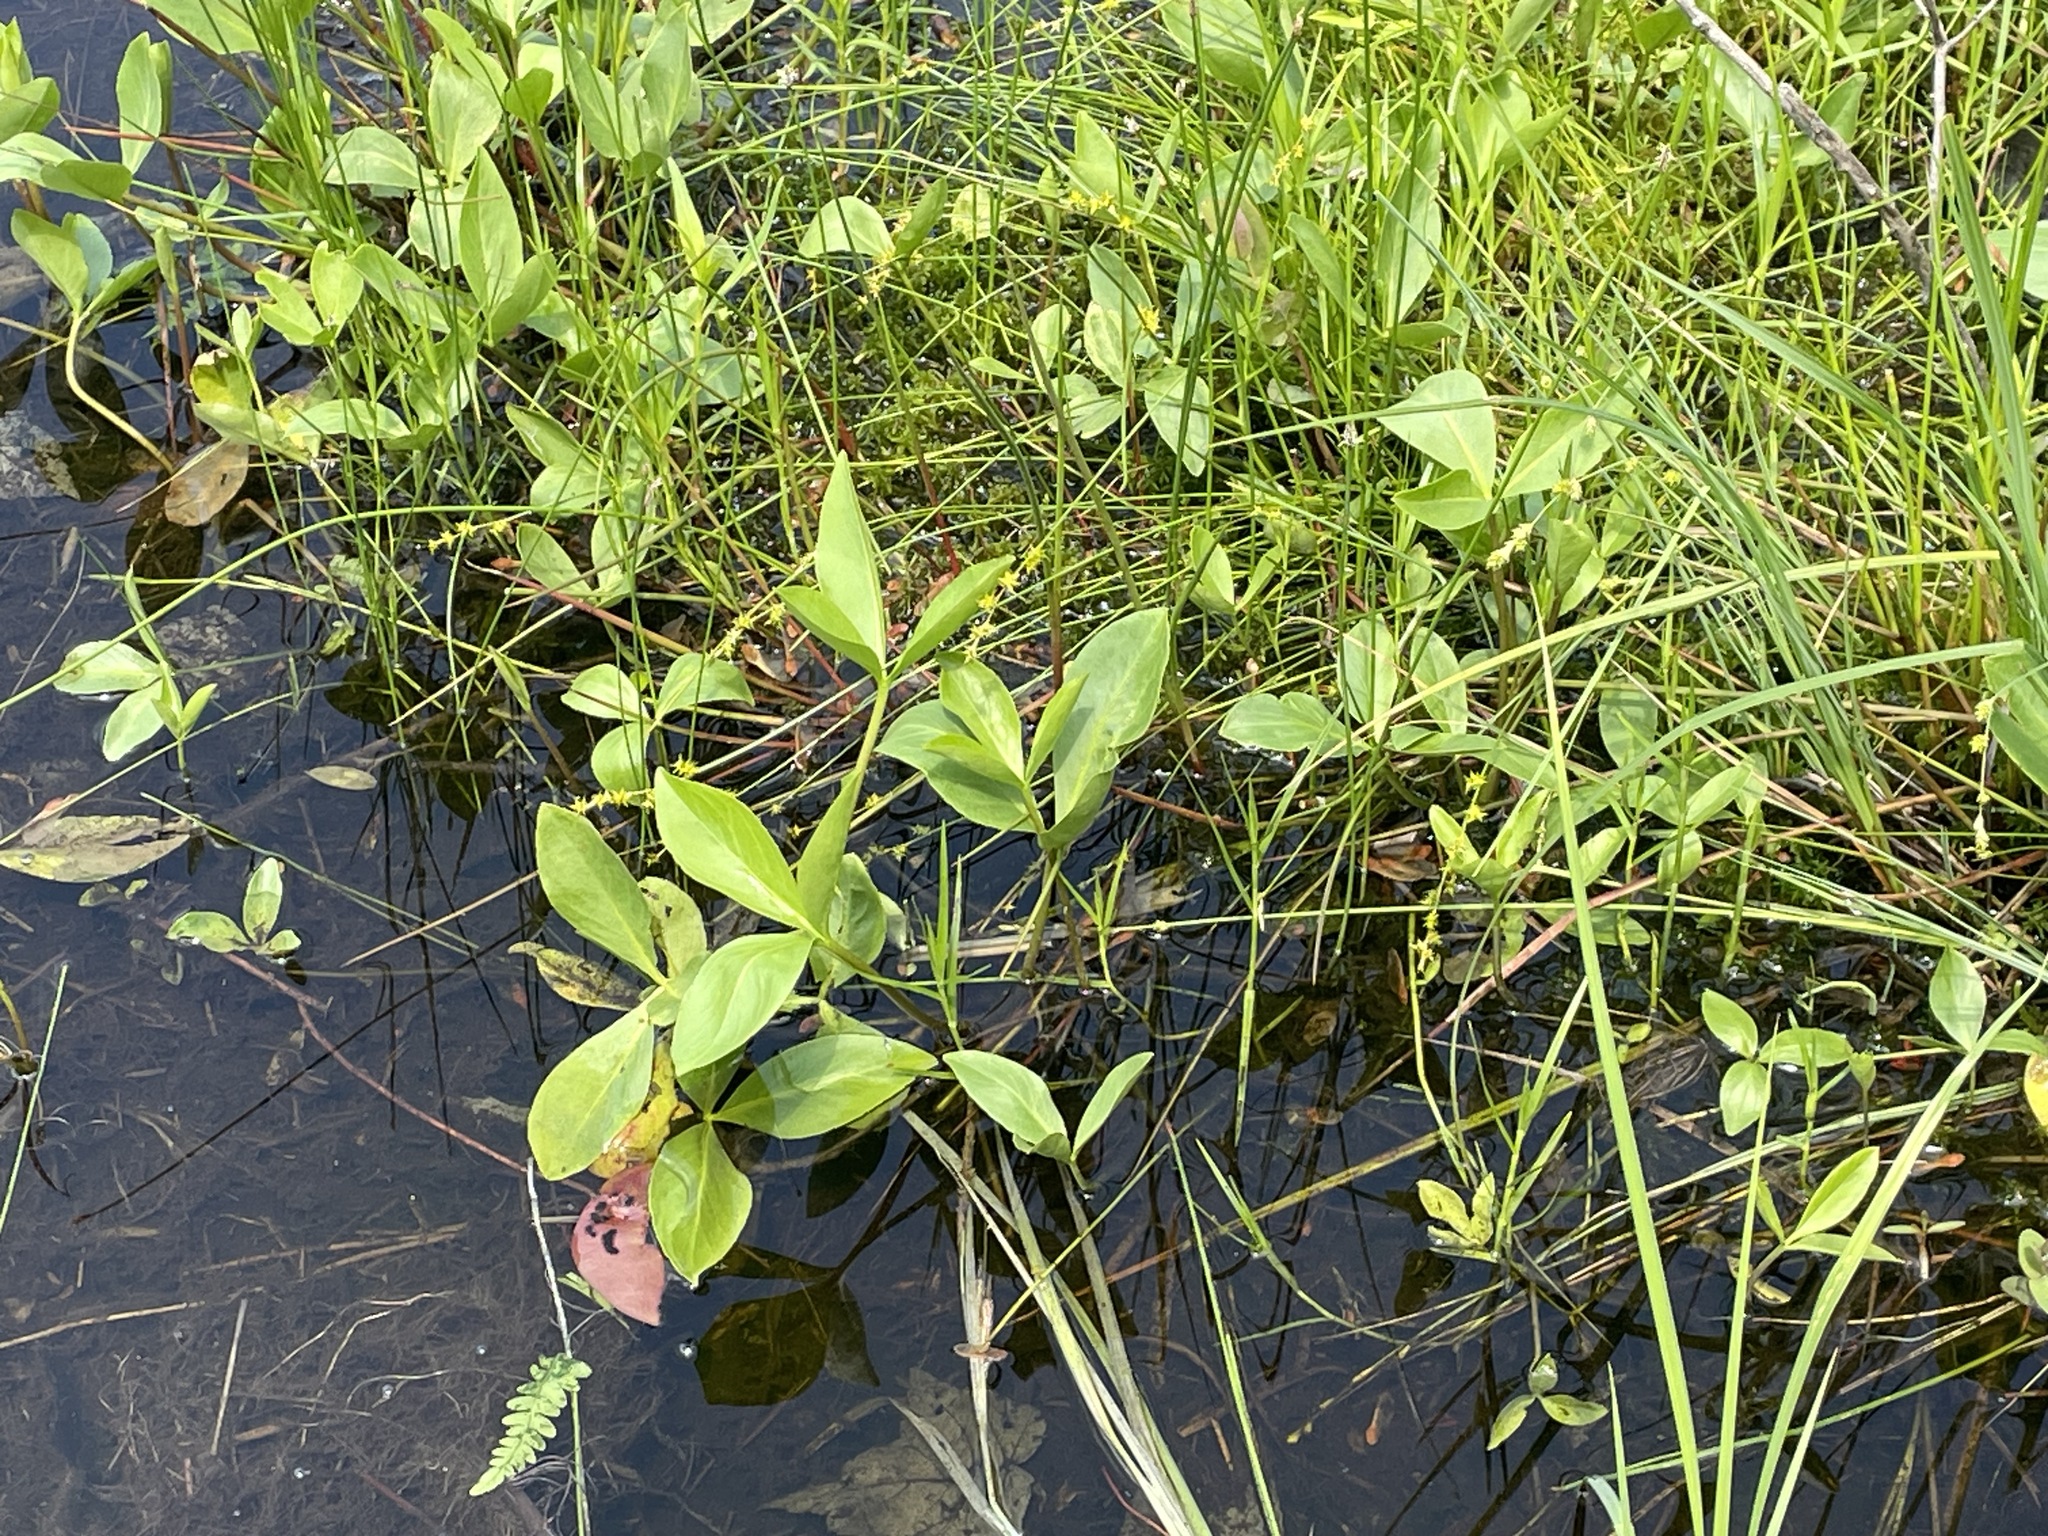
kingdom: Plantae
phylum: Tracheophyta
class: Magnoliopsida
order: Asterales
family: Menyanthaceae
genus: Menyanthes
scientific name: Menyanthes trifoliata
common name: Bogbean
